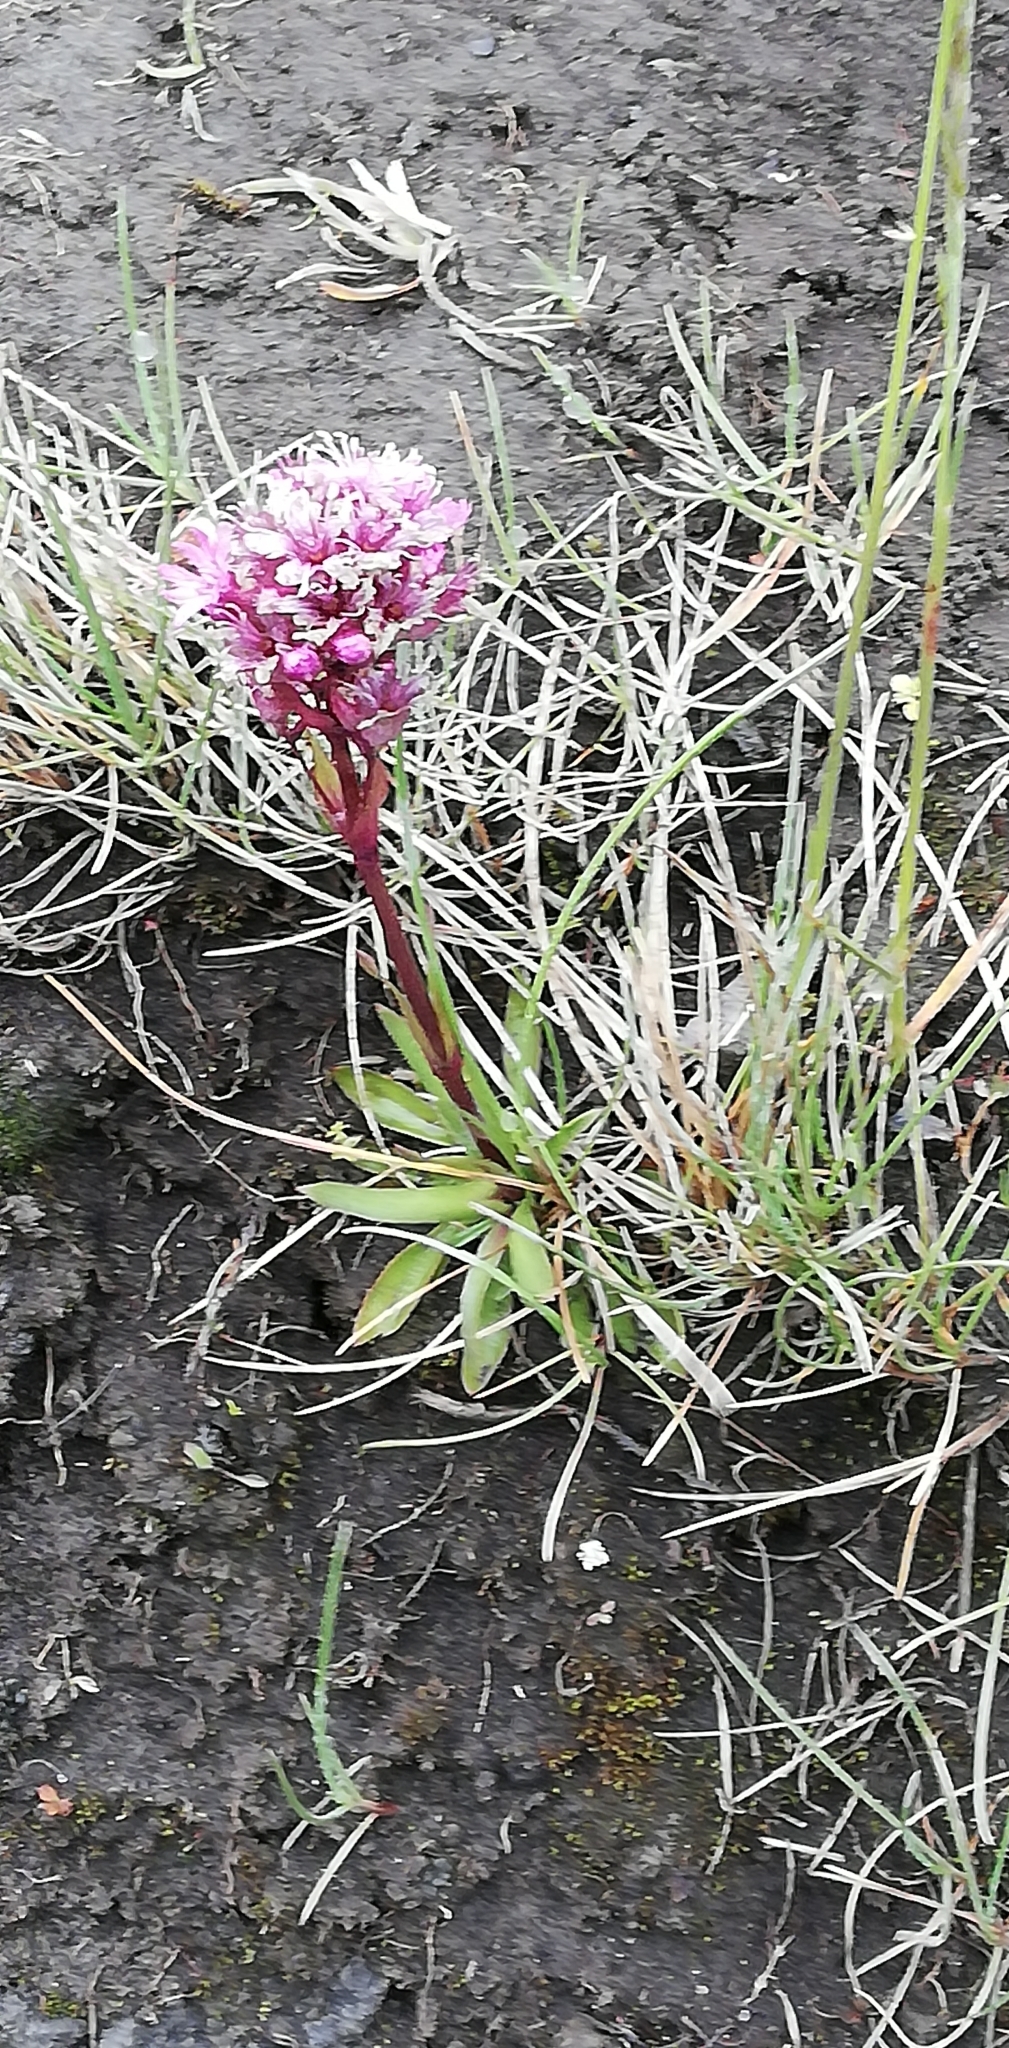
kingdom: Plantae
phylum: Tracheophyta
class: Magnoliopsida
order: Caryophyllales
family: Caryophyllaceae
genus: Viscaria
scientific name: Viscaria alpina
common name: Alpine campion
